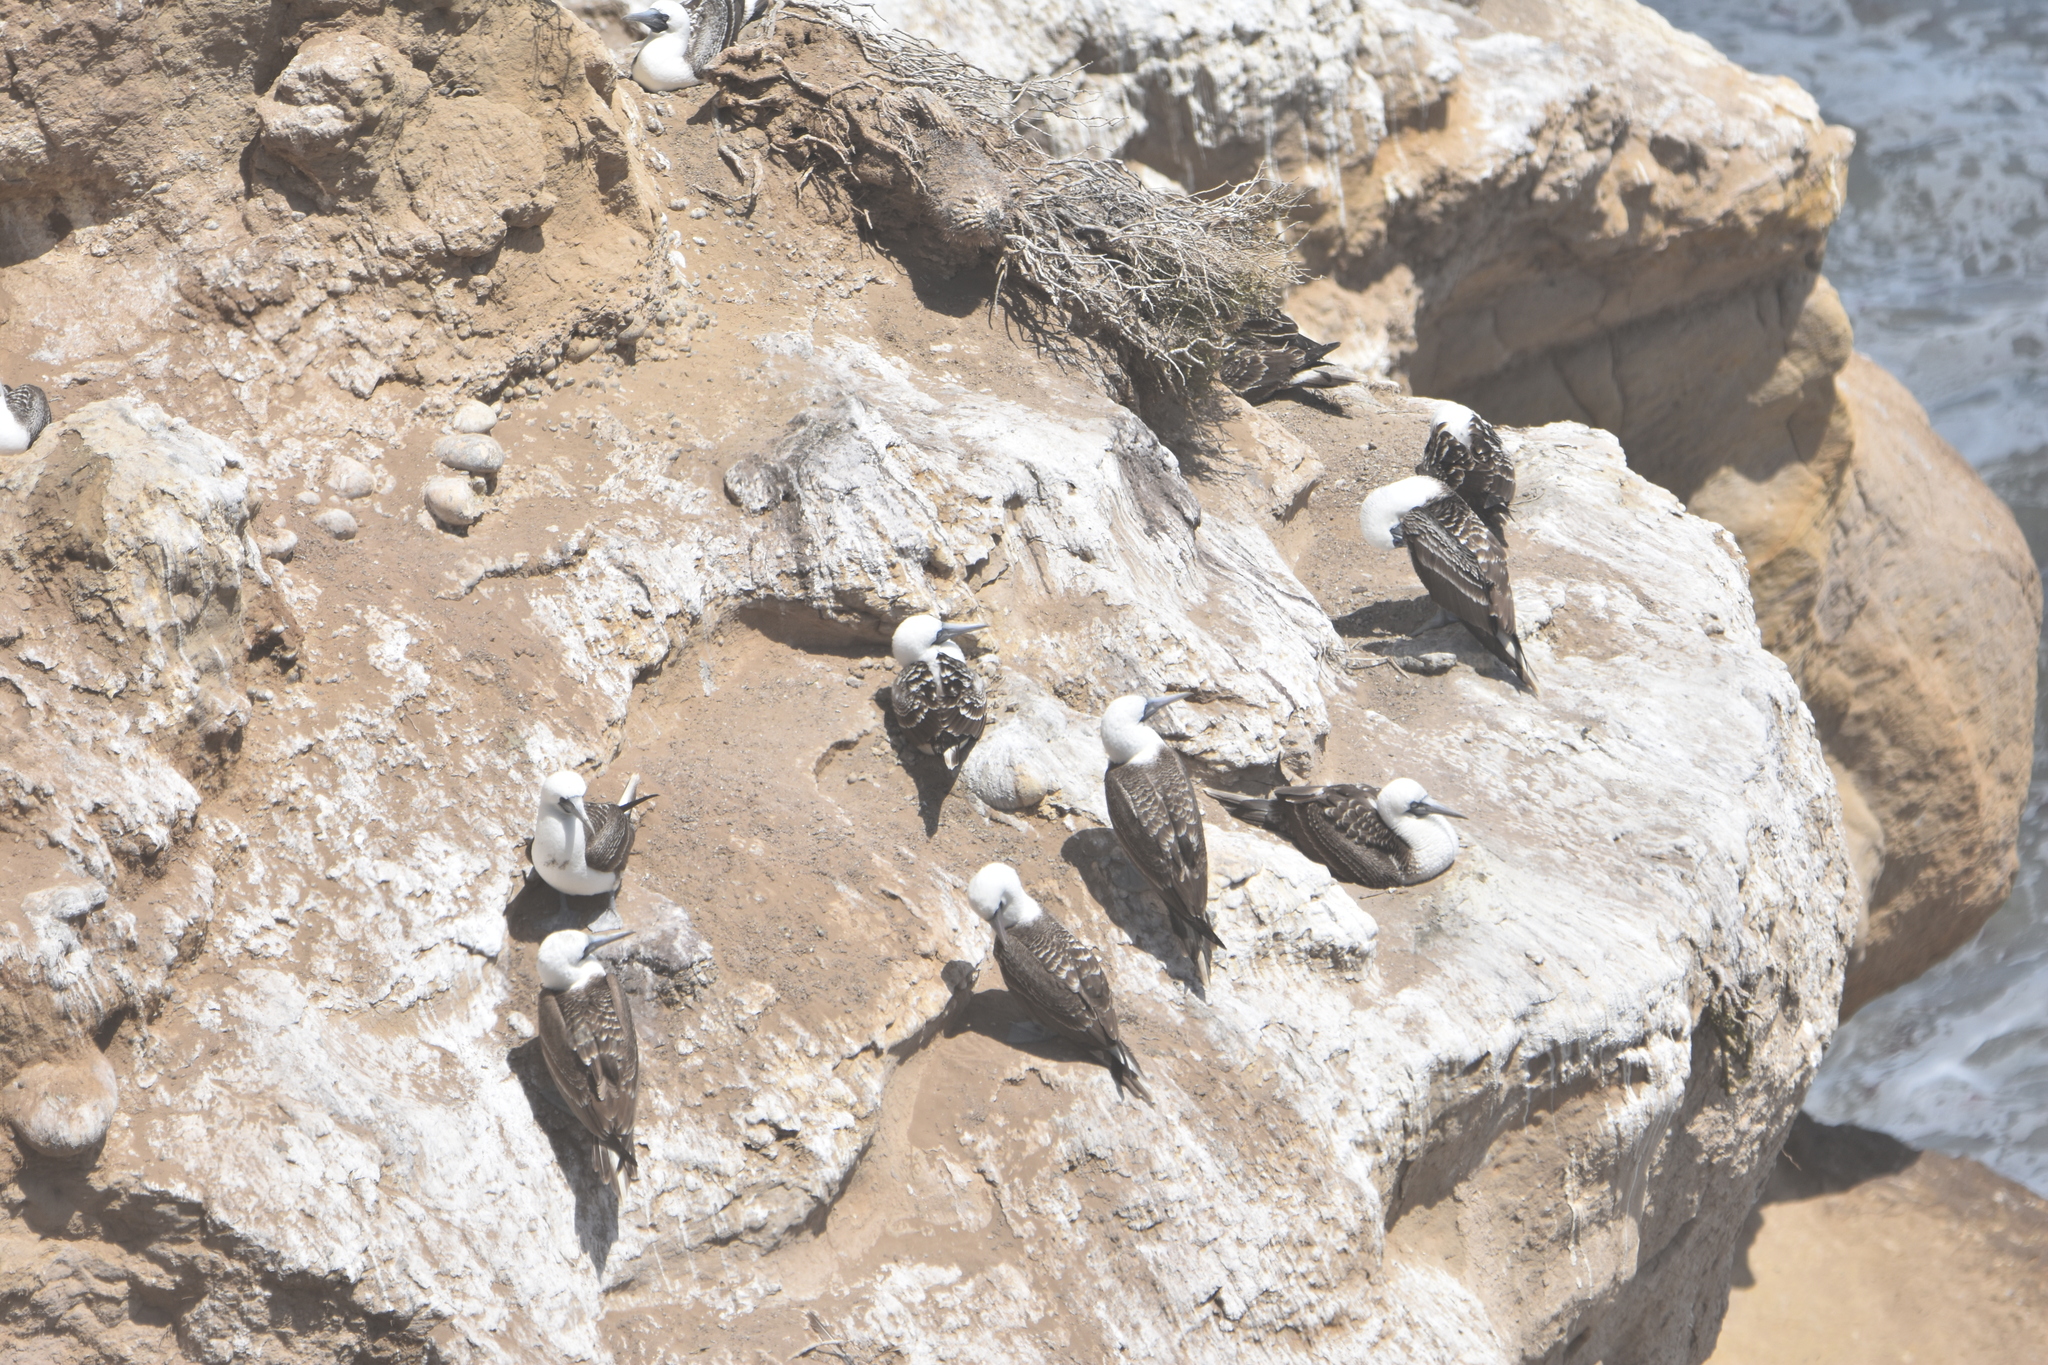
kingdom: Animalia
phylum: Chordata
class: Aves
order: Suliformes
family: Sulidae
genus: Sula
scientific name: Sula variegata
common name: Peruvian booby
